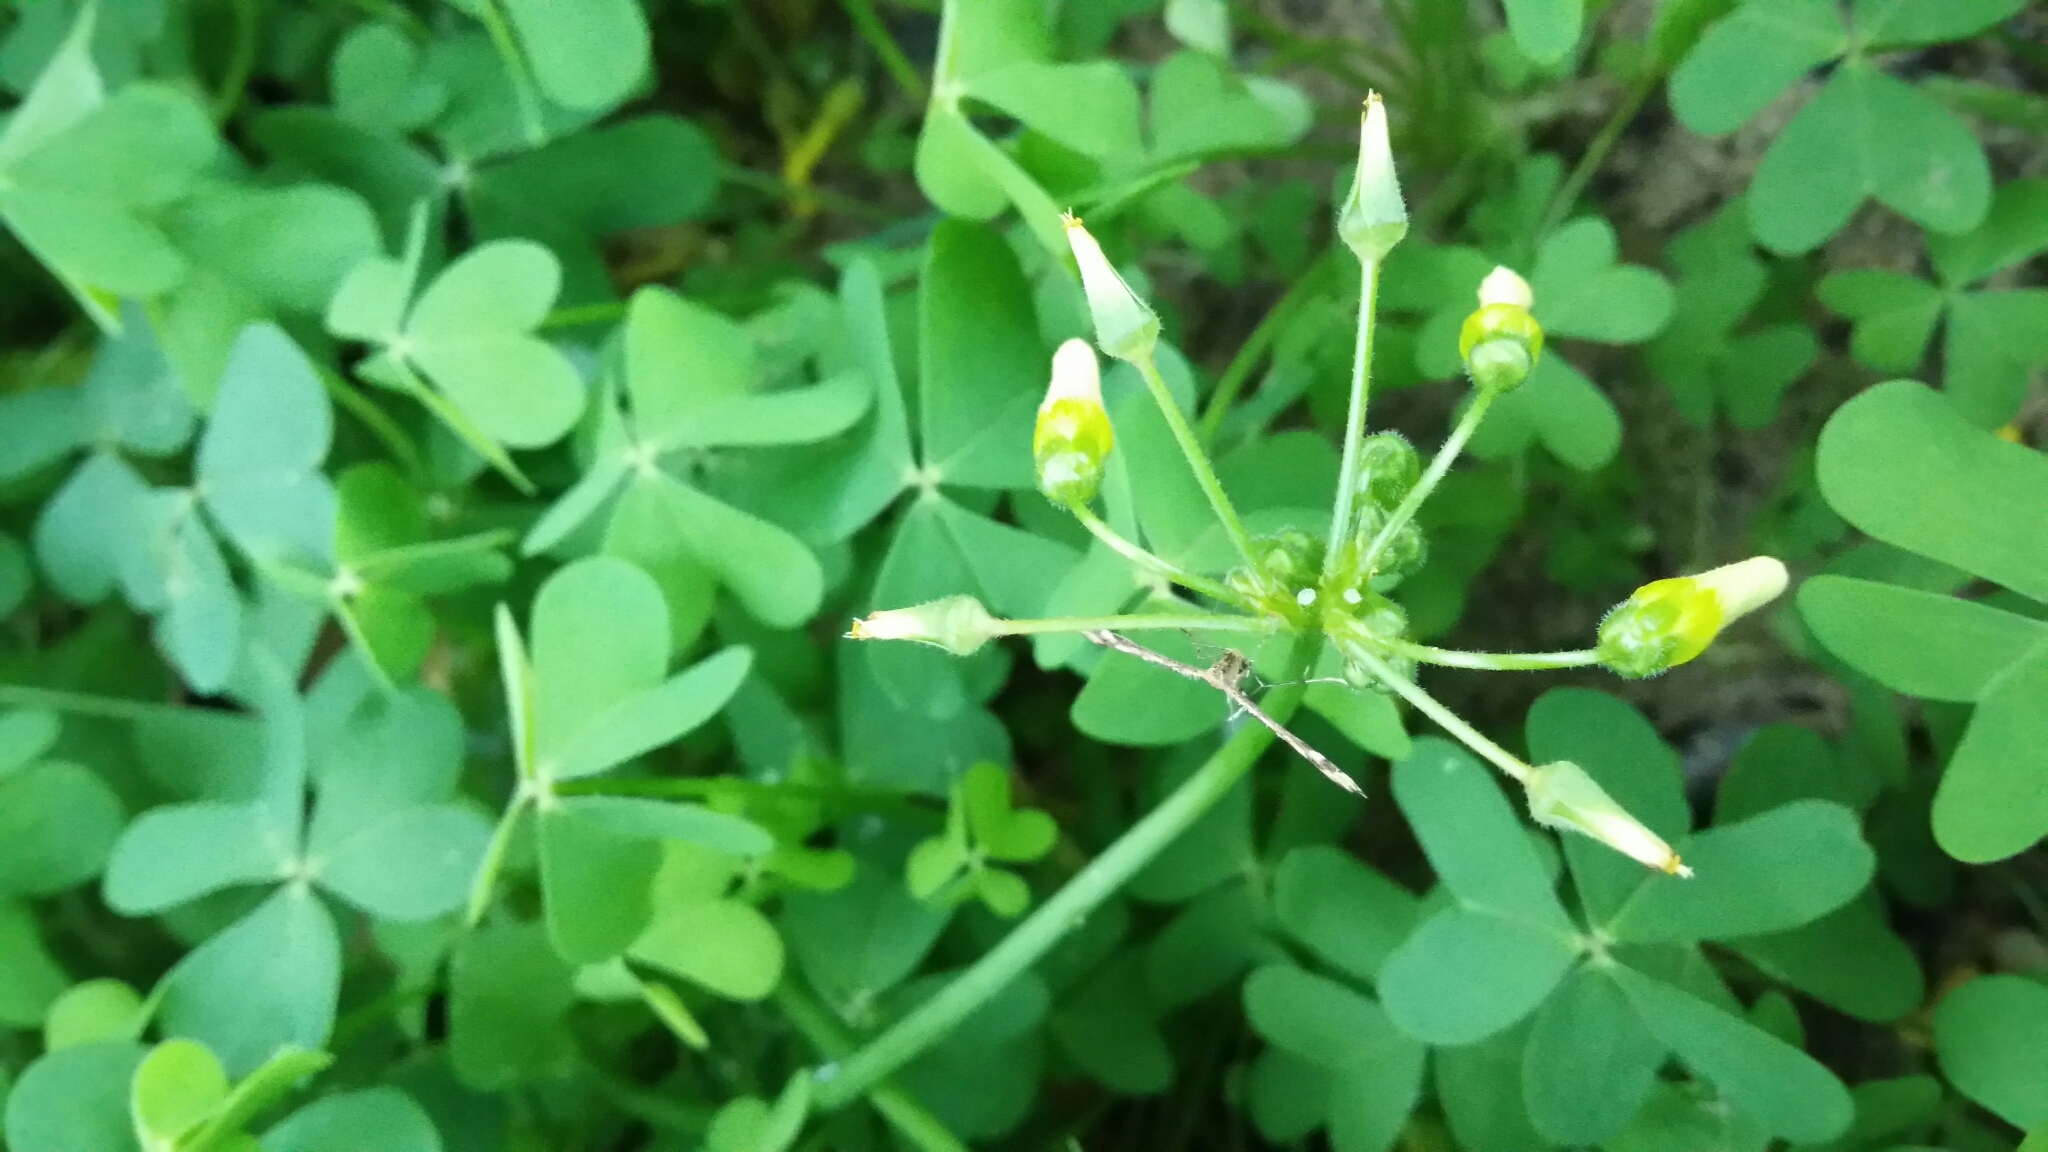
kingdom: Animalia
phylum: Arthropoda
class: Insecta
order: Lepidoptera
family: Pterophoridae
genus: Sphenarches
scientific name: Sphenarches anisodactylus
